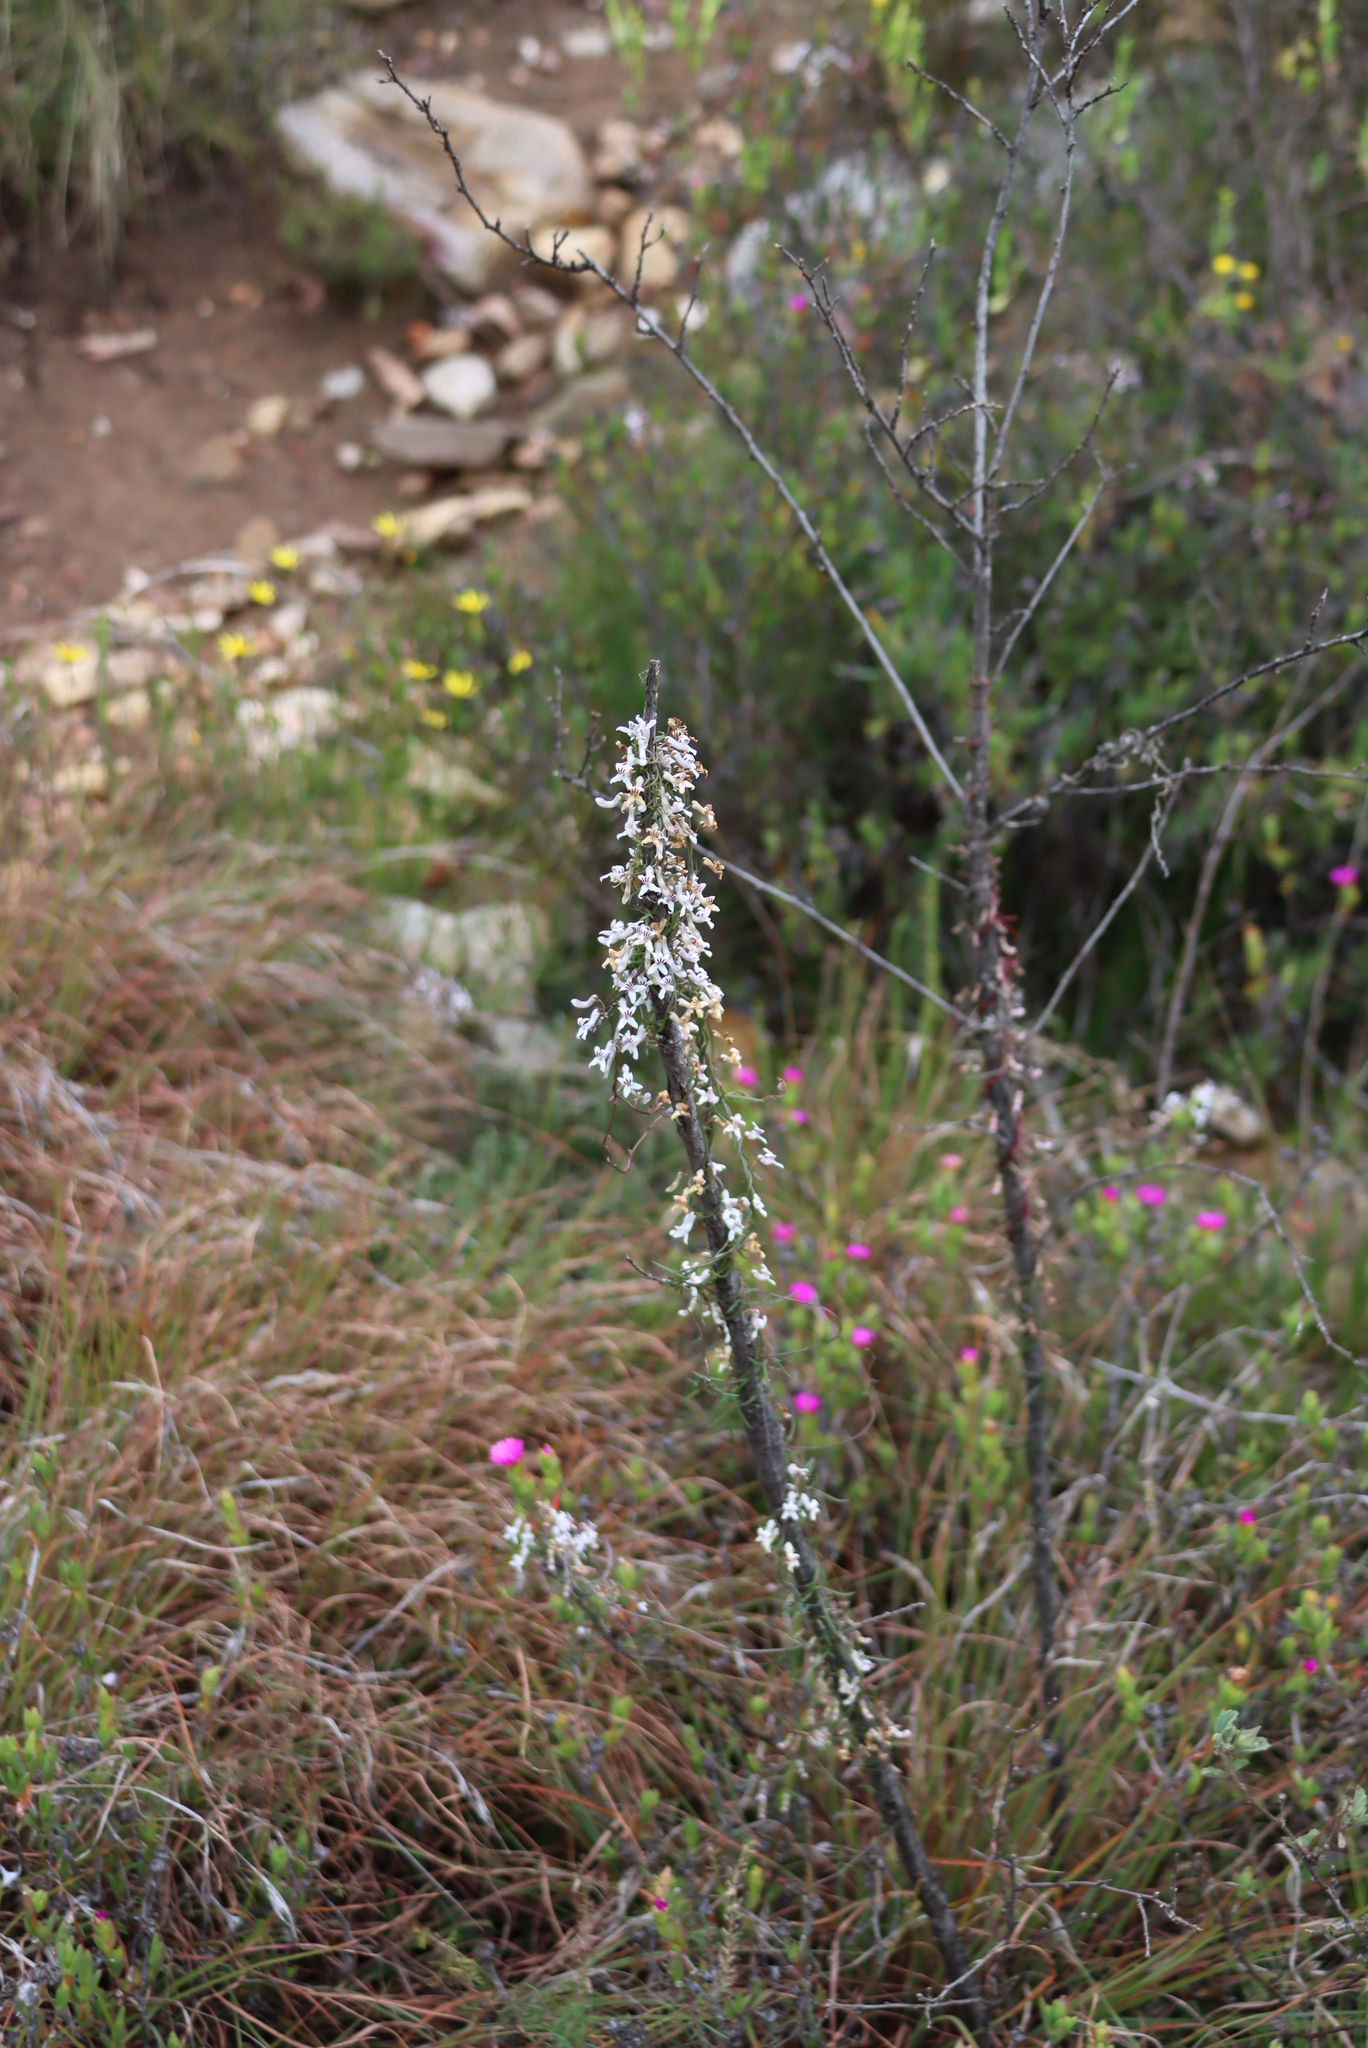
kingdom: Plantae
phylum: Tracheophyta
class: Magnoliopsida
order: Asterales
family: Campanulaceae
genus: Cyphia
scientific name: Cyphia sylvatica
